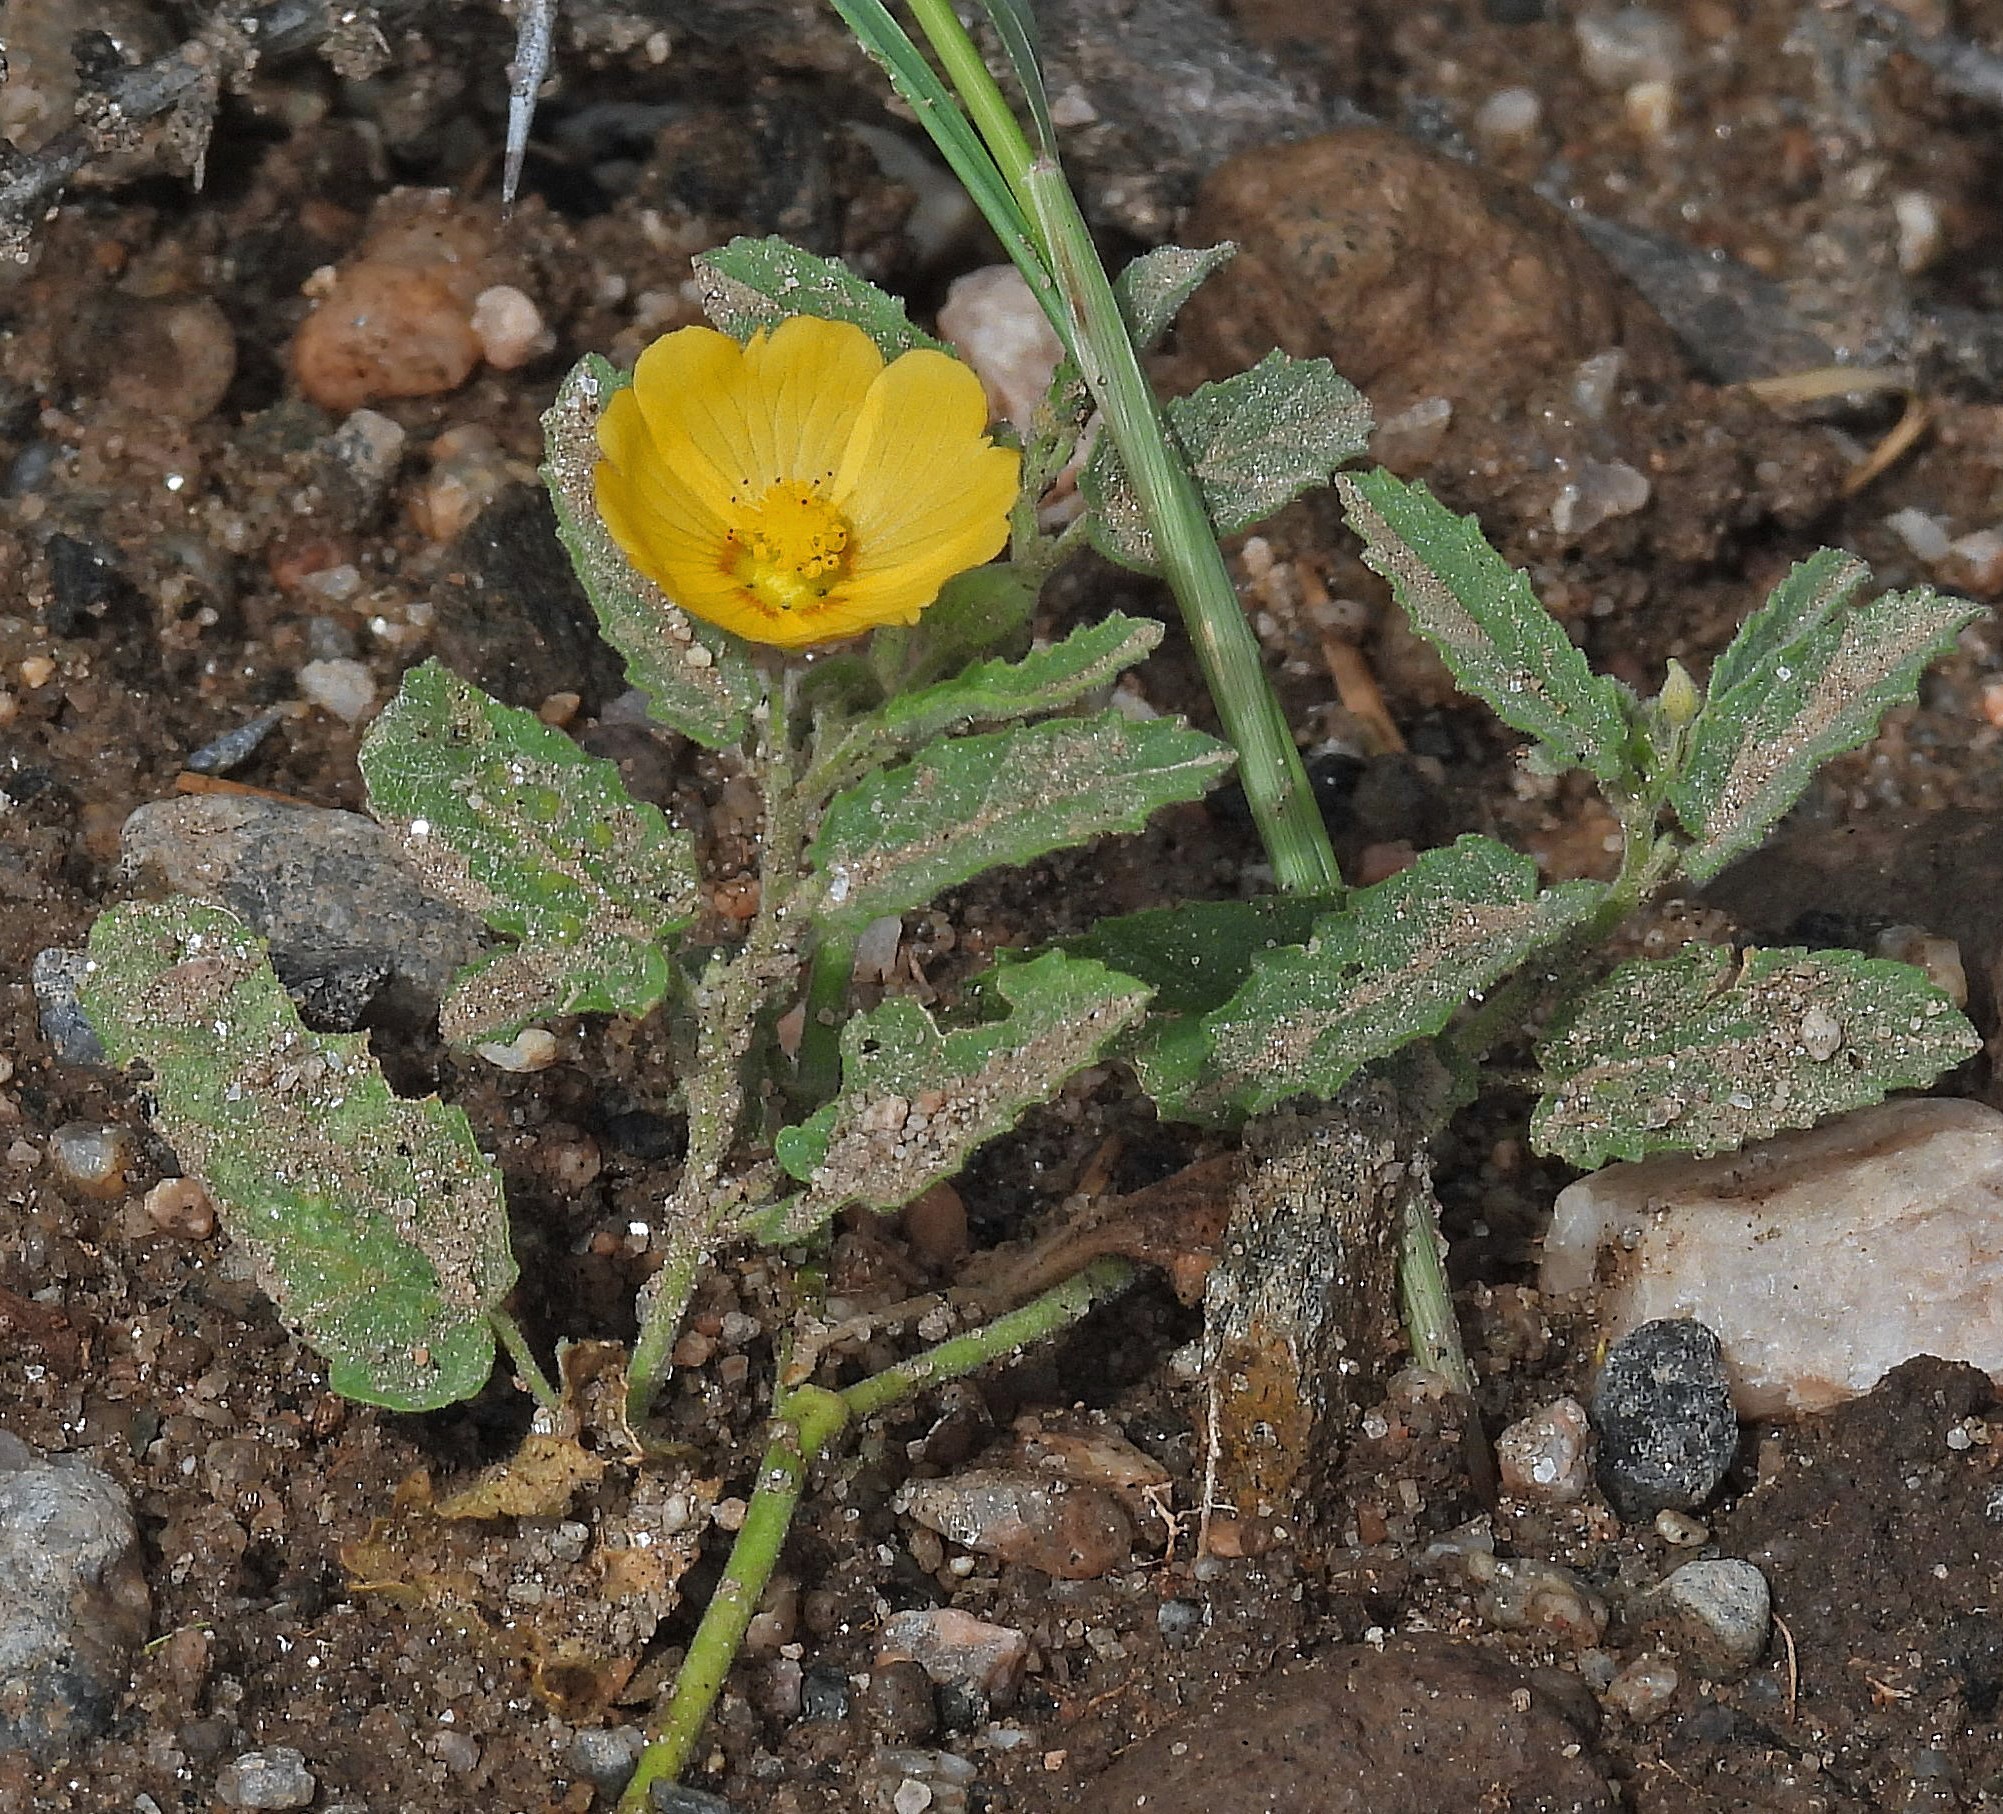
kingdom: Plantae
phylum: Tracheophyta
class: Magnoliopsida
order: Malvales
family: Malvaceae
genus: Gaya
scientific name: Gaya parviflora
